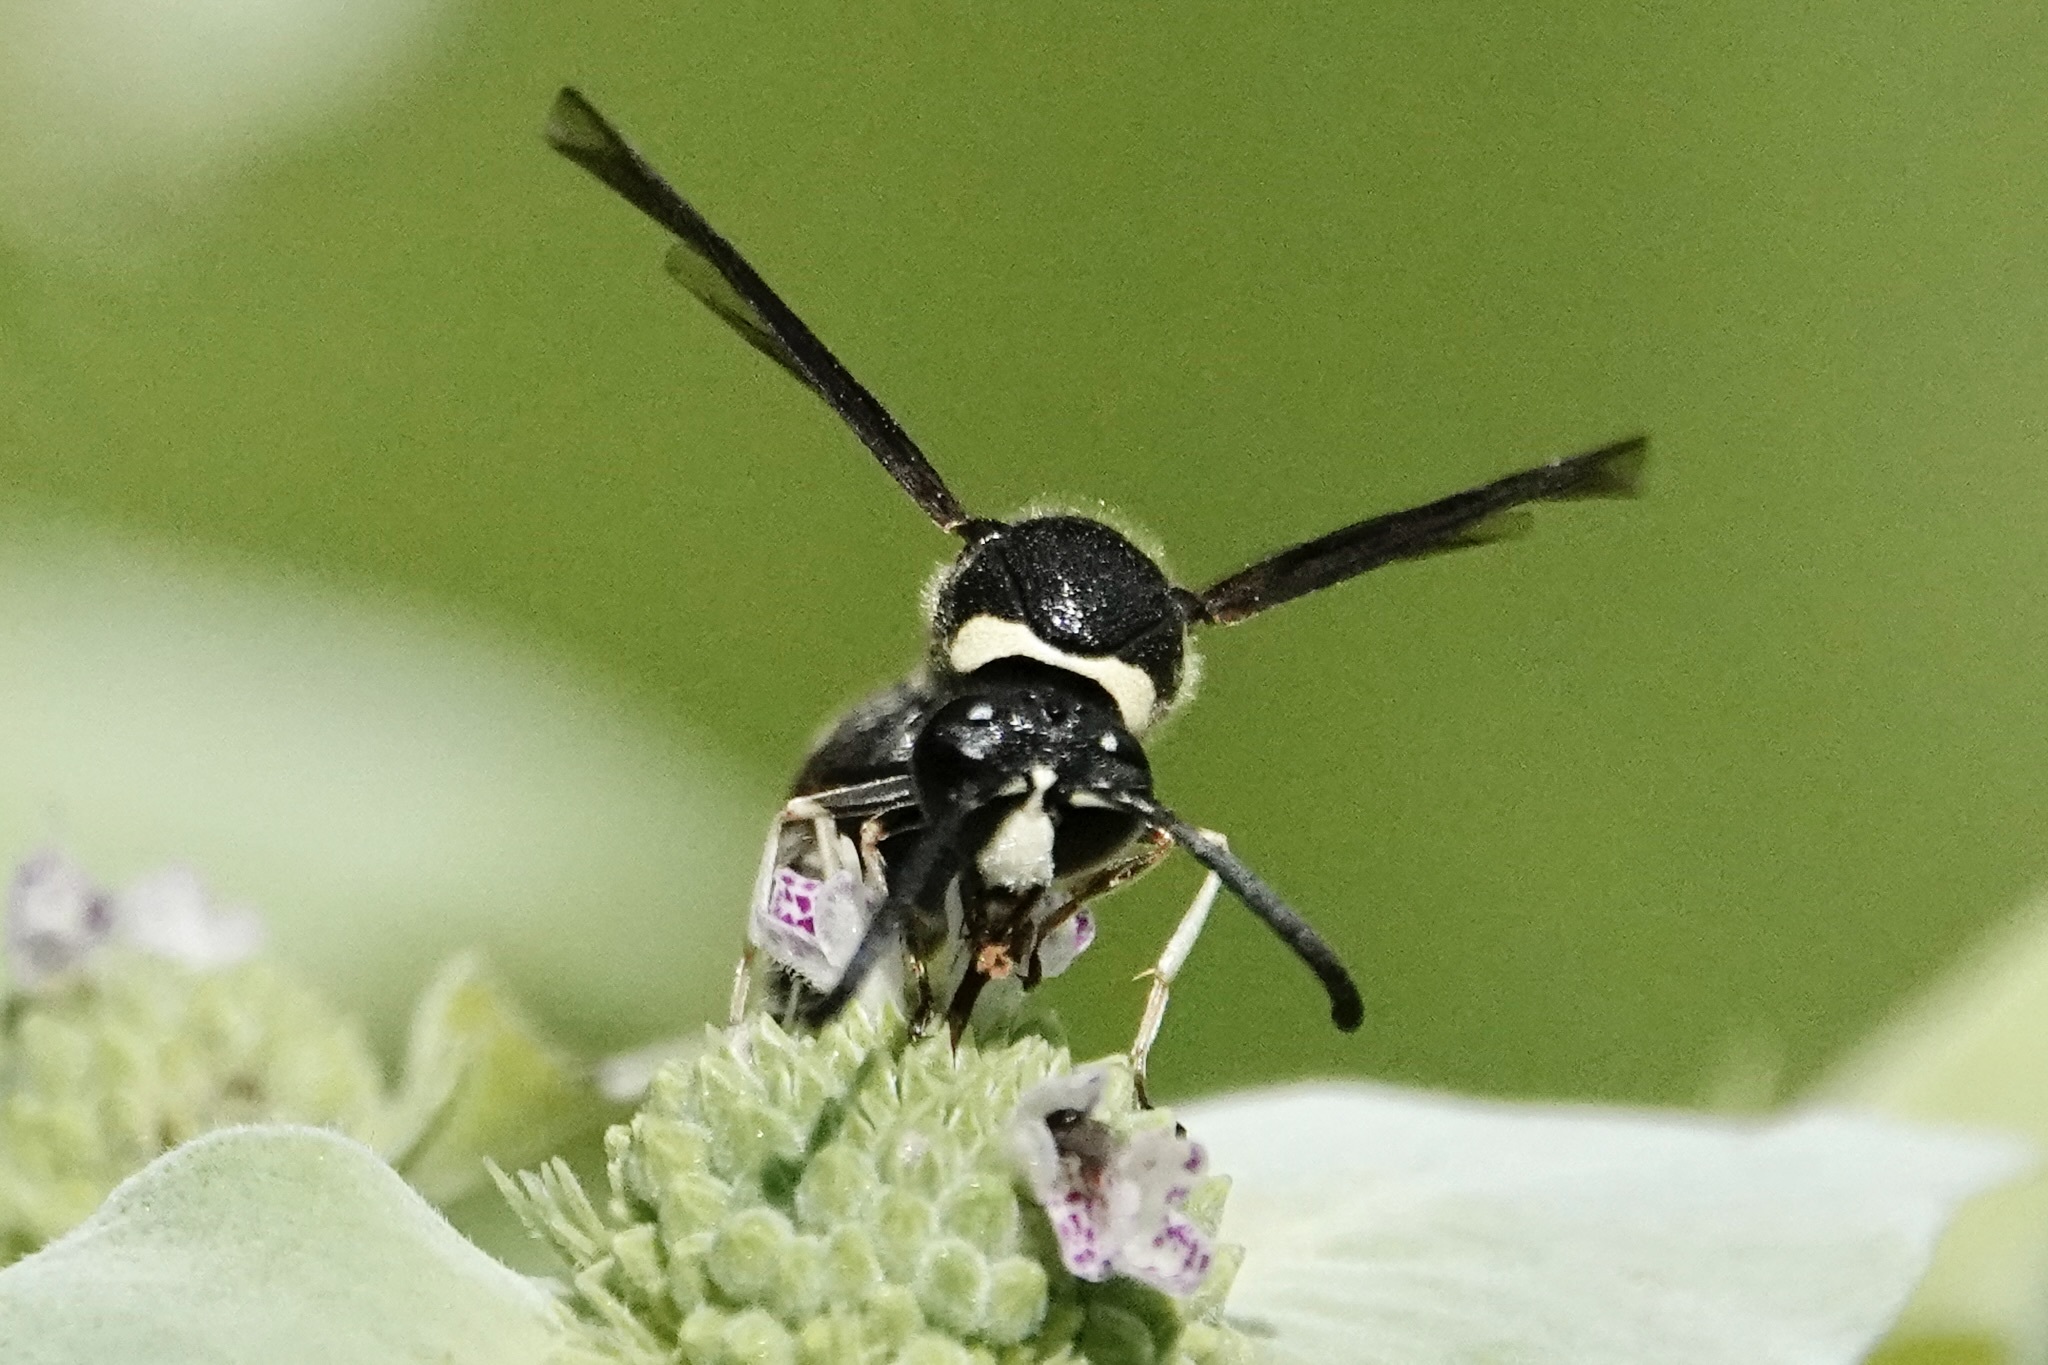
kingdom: Animalia
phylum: Arthropoda
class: Insecta
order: Hymenoptera
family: Vespidae
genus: Eumenes
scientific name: Eumenes fraternus
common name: Fraternal potter wasp
